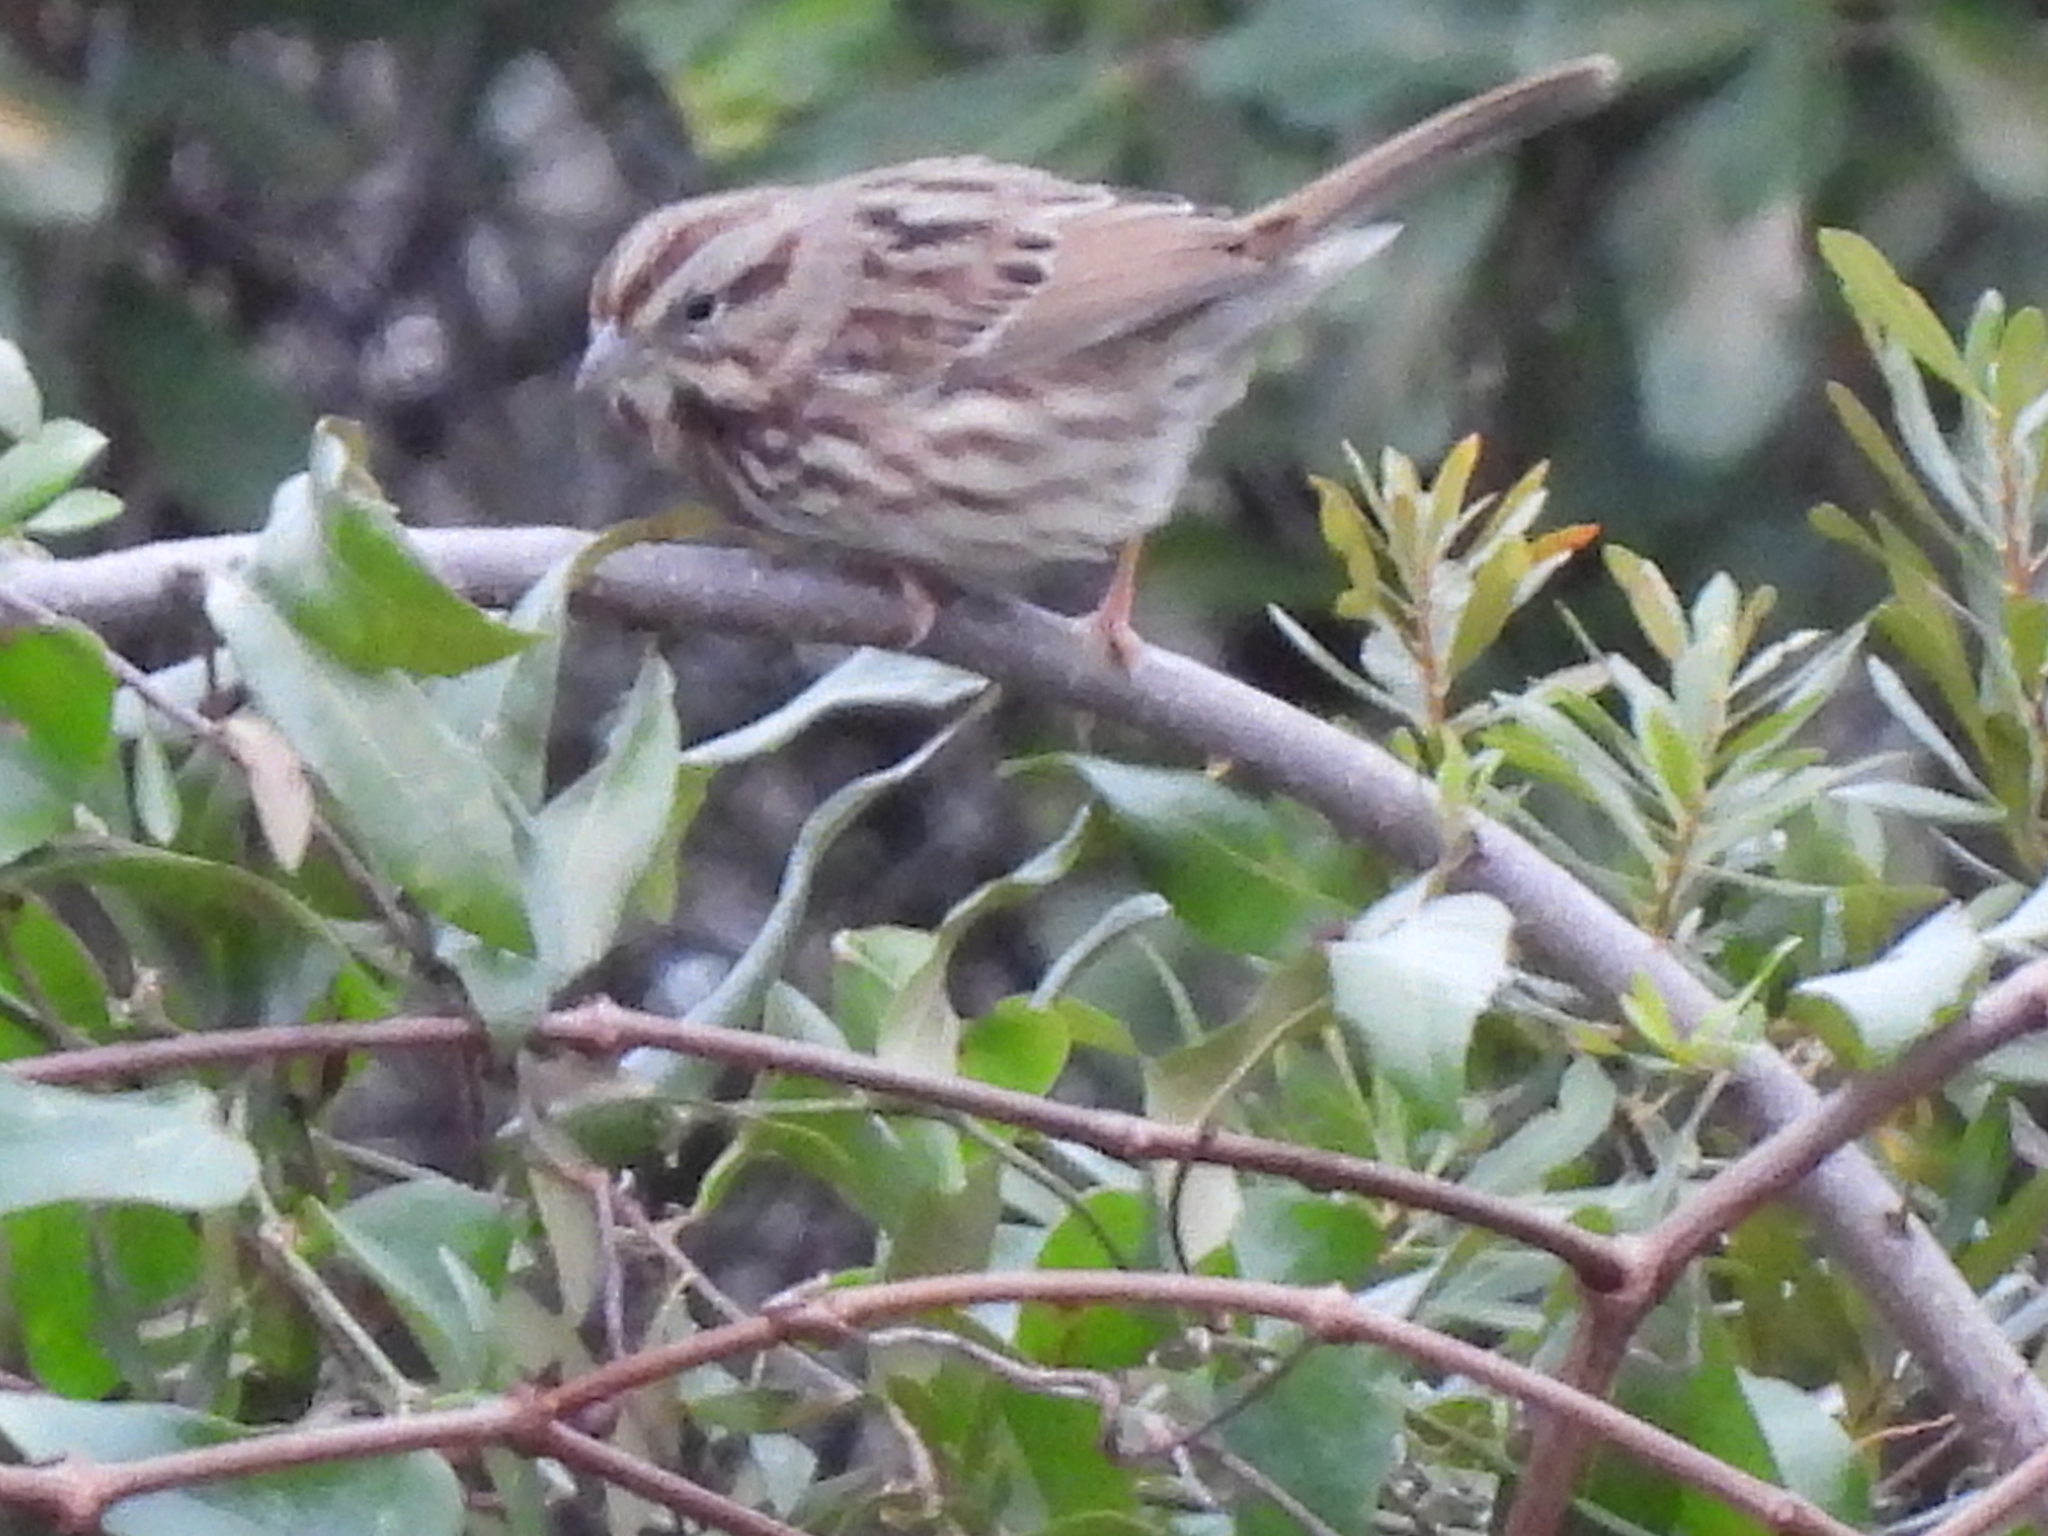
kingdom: Animalia
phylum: Chordata
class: Aves
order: Passeriformes
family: Passerellidae
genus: Melospiza
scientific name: Melospiza melodia
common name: Song sparrow
